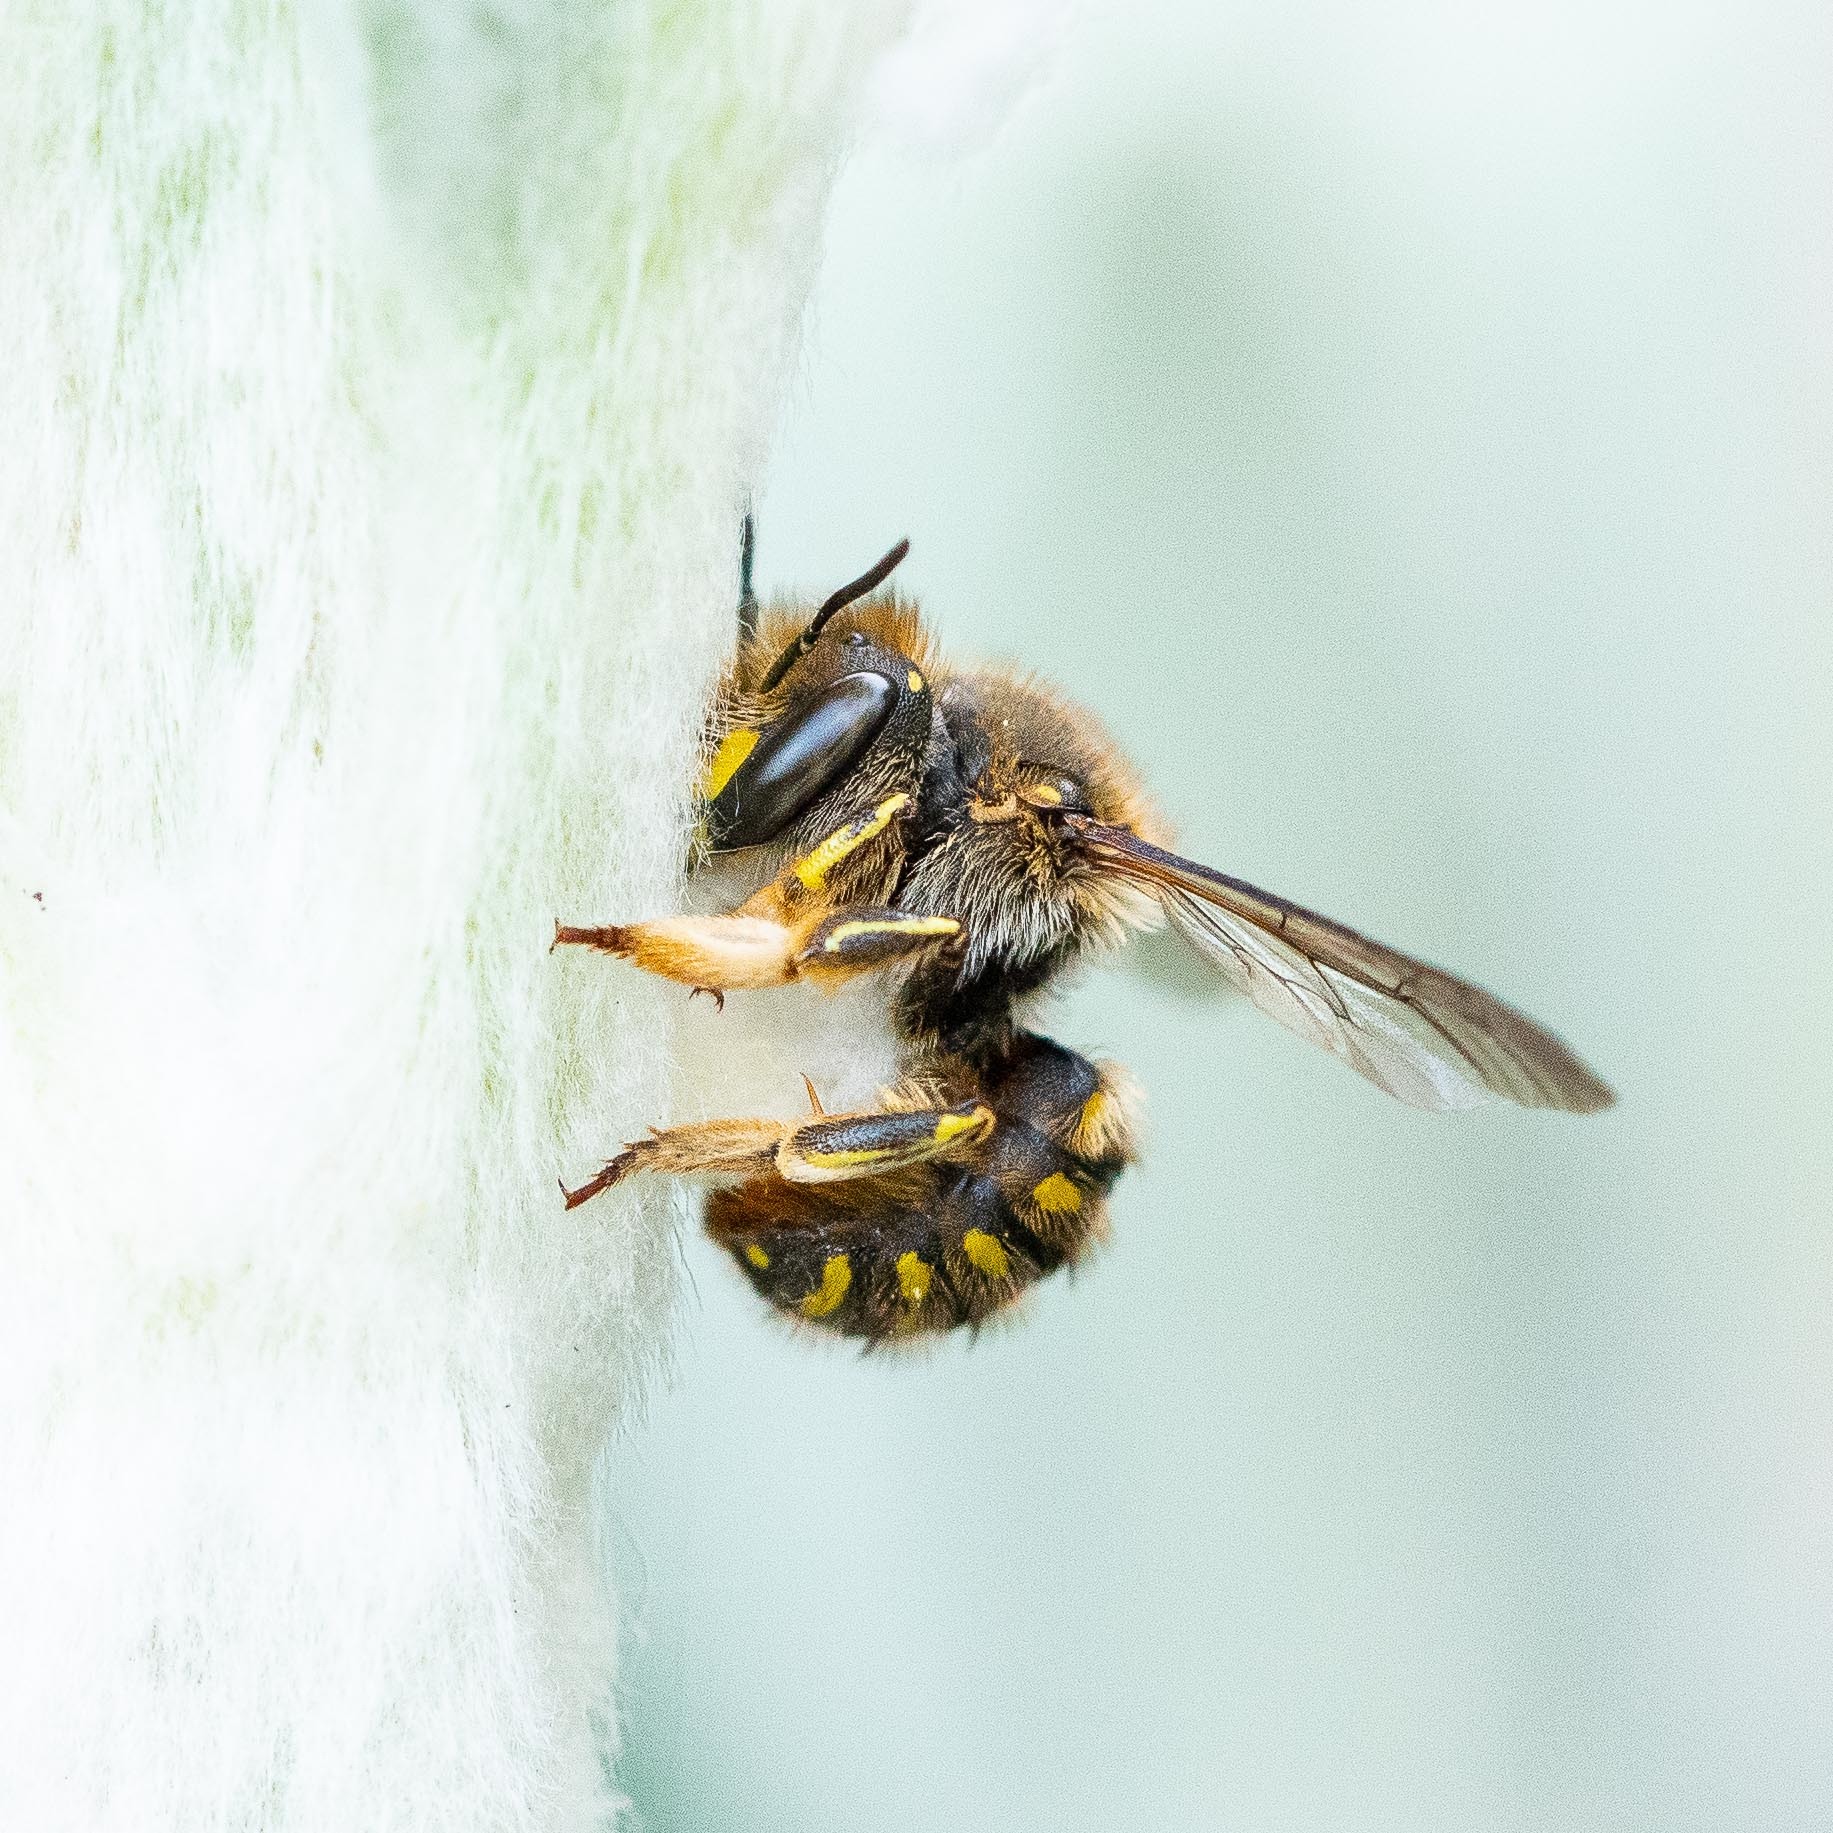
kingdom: Animalia
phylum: Arthropoda
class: Insecta
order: Hymenoptera
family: Megachilidae
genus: Anthidium
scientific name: Anthidium manicatum
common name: Wool carder bee
